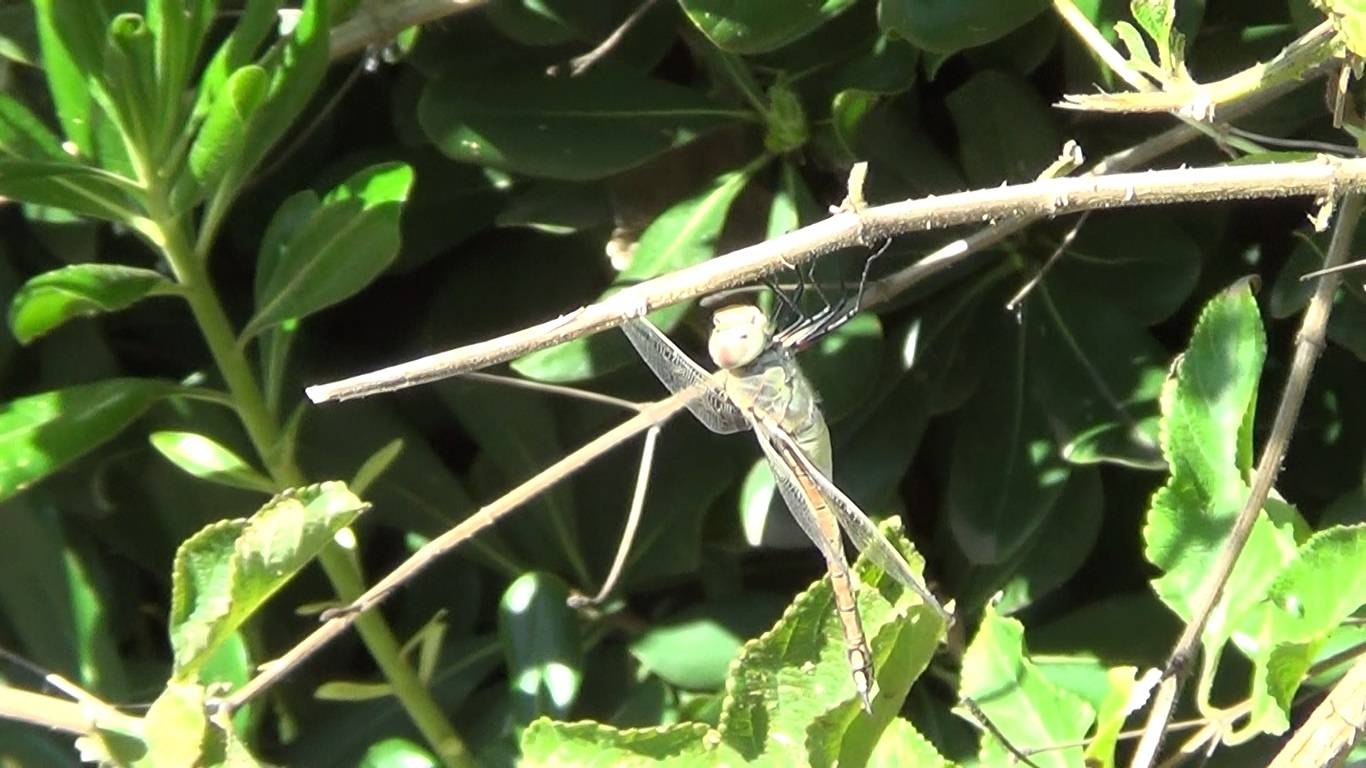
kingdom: Animalia
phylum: Arthropoda
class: Insecta
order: Odonata
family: Aeshnidae
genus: Anax
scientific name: Anax ephippiger
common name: Vagrant emperor
